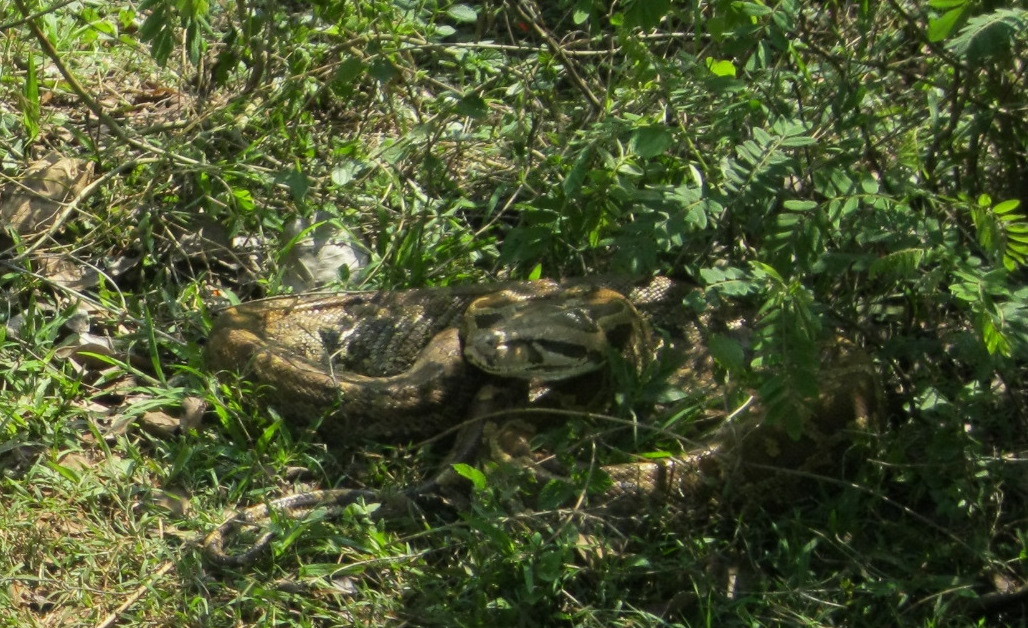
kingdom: Animalia
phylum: Chordata
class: Squamata
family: Pythonidae
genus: Python
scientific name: Python molurus
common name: Indian rock python
